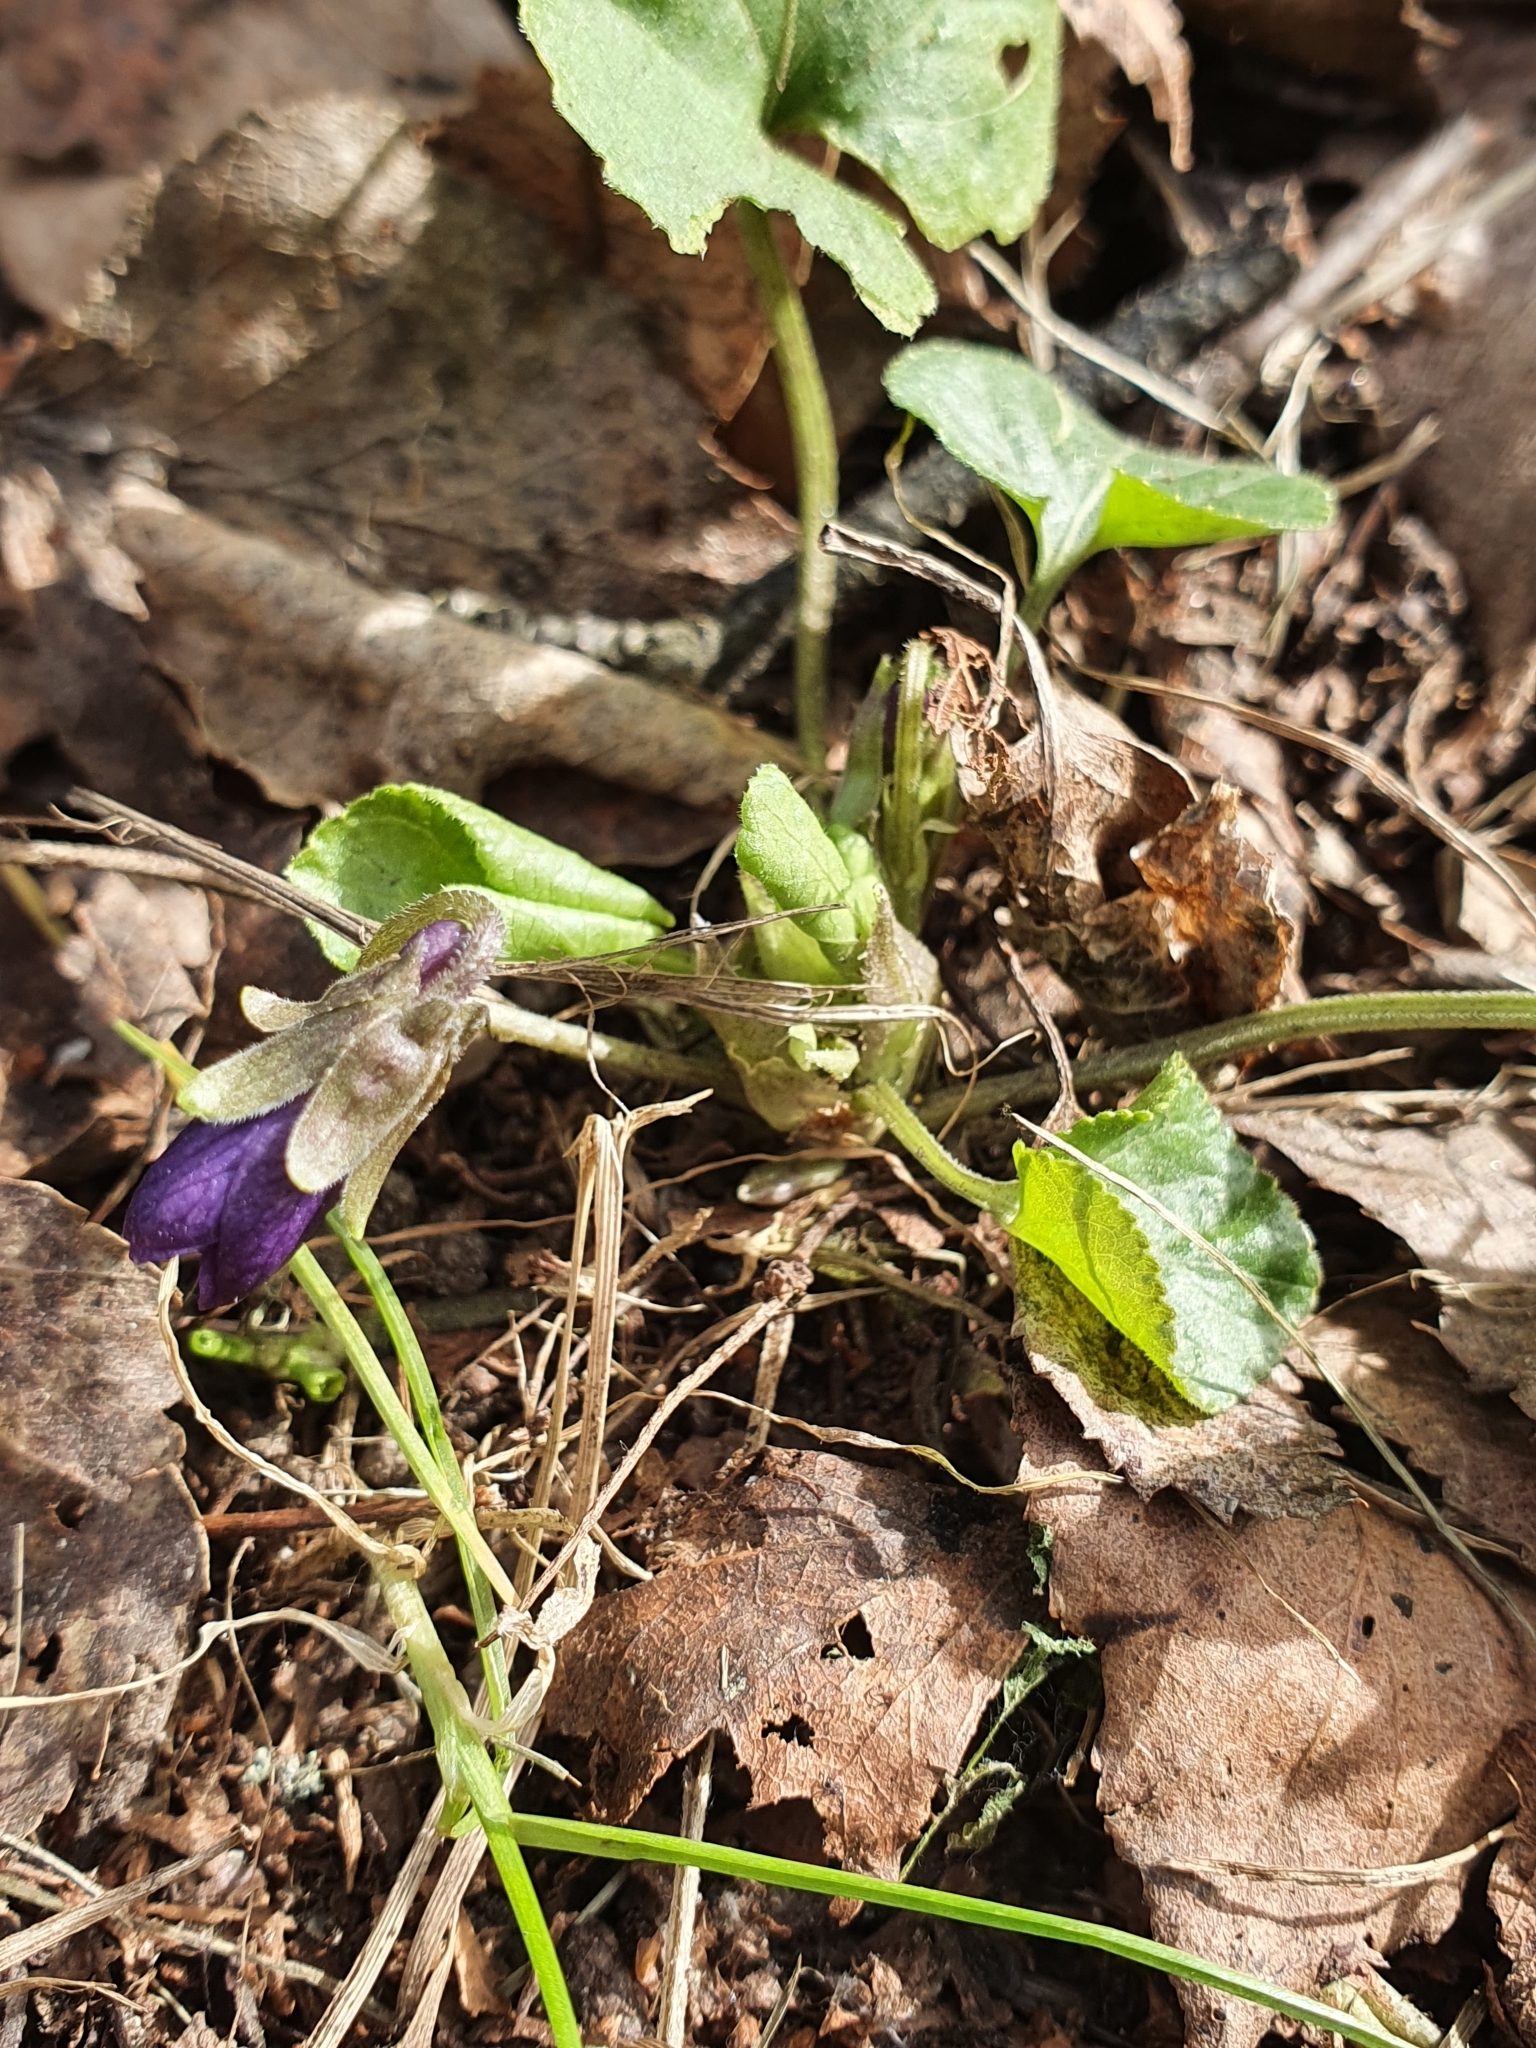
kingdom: Plantae
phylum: Tracheophyta
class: Magnoliopsida
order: Malpighiales
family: Violaceae
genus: Viola
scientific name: Viola odorata
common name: Sweet violet
